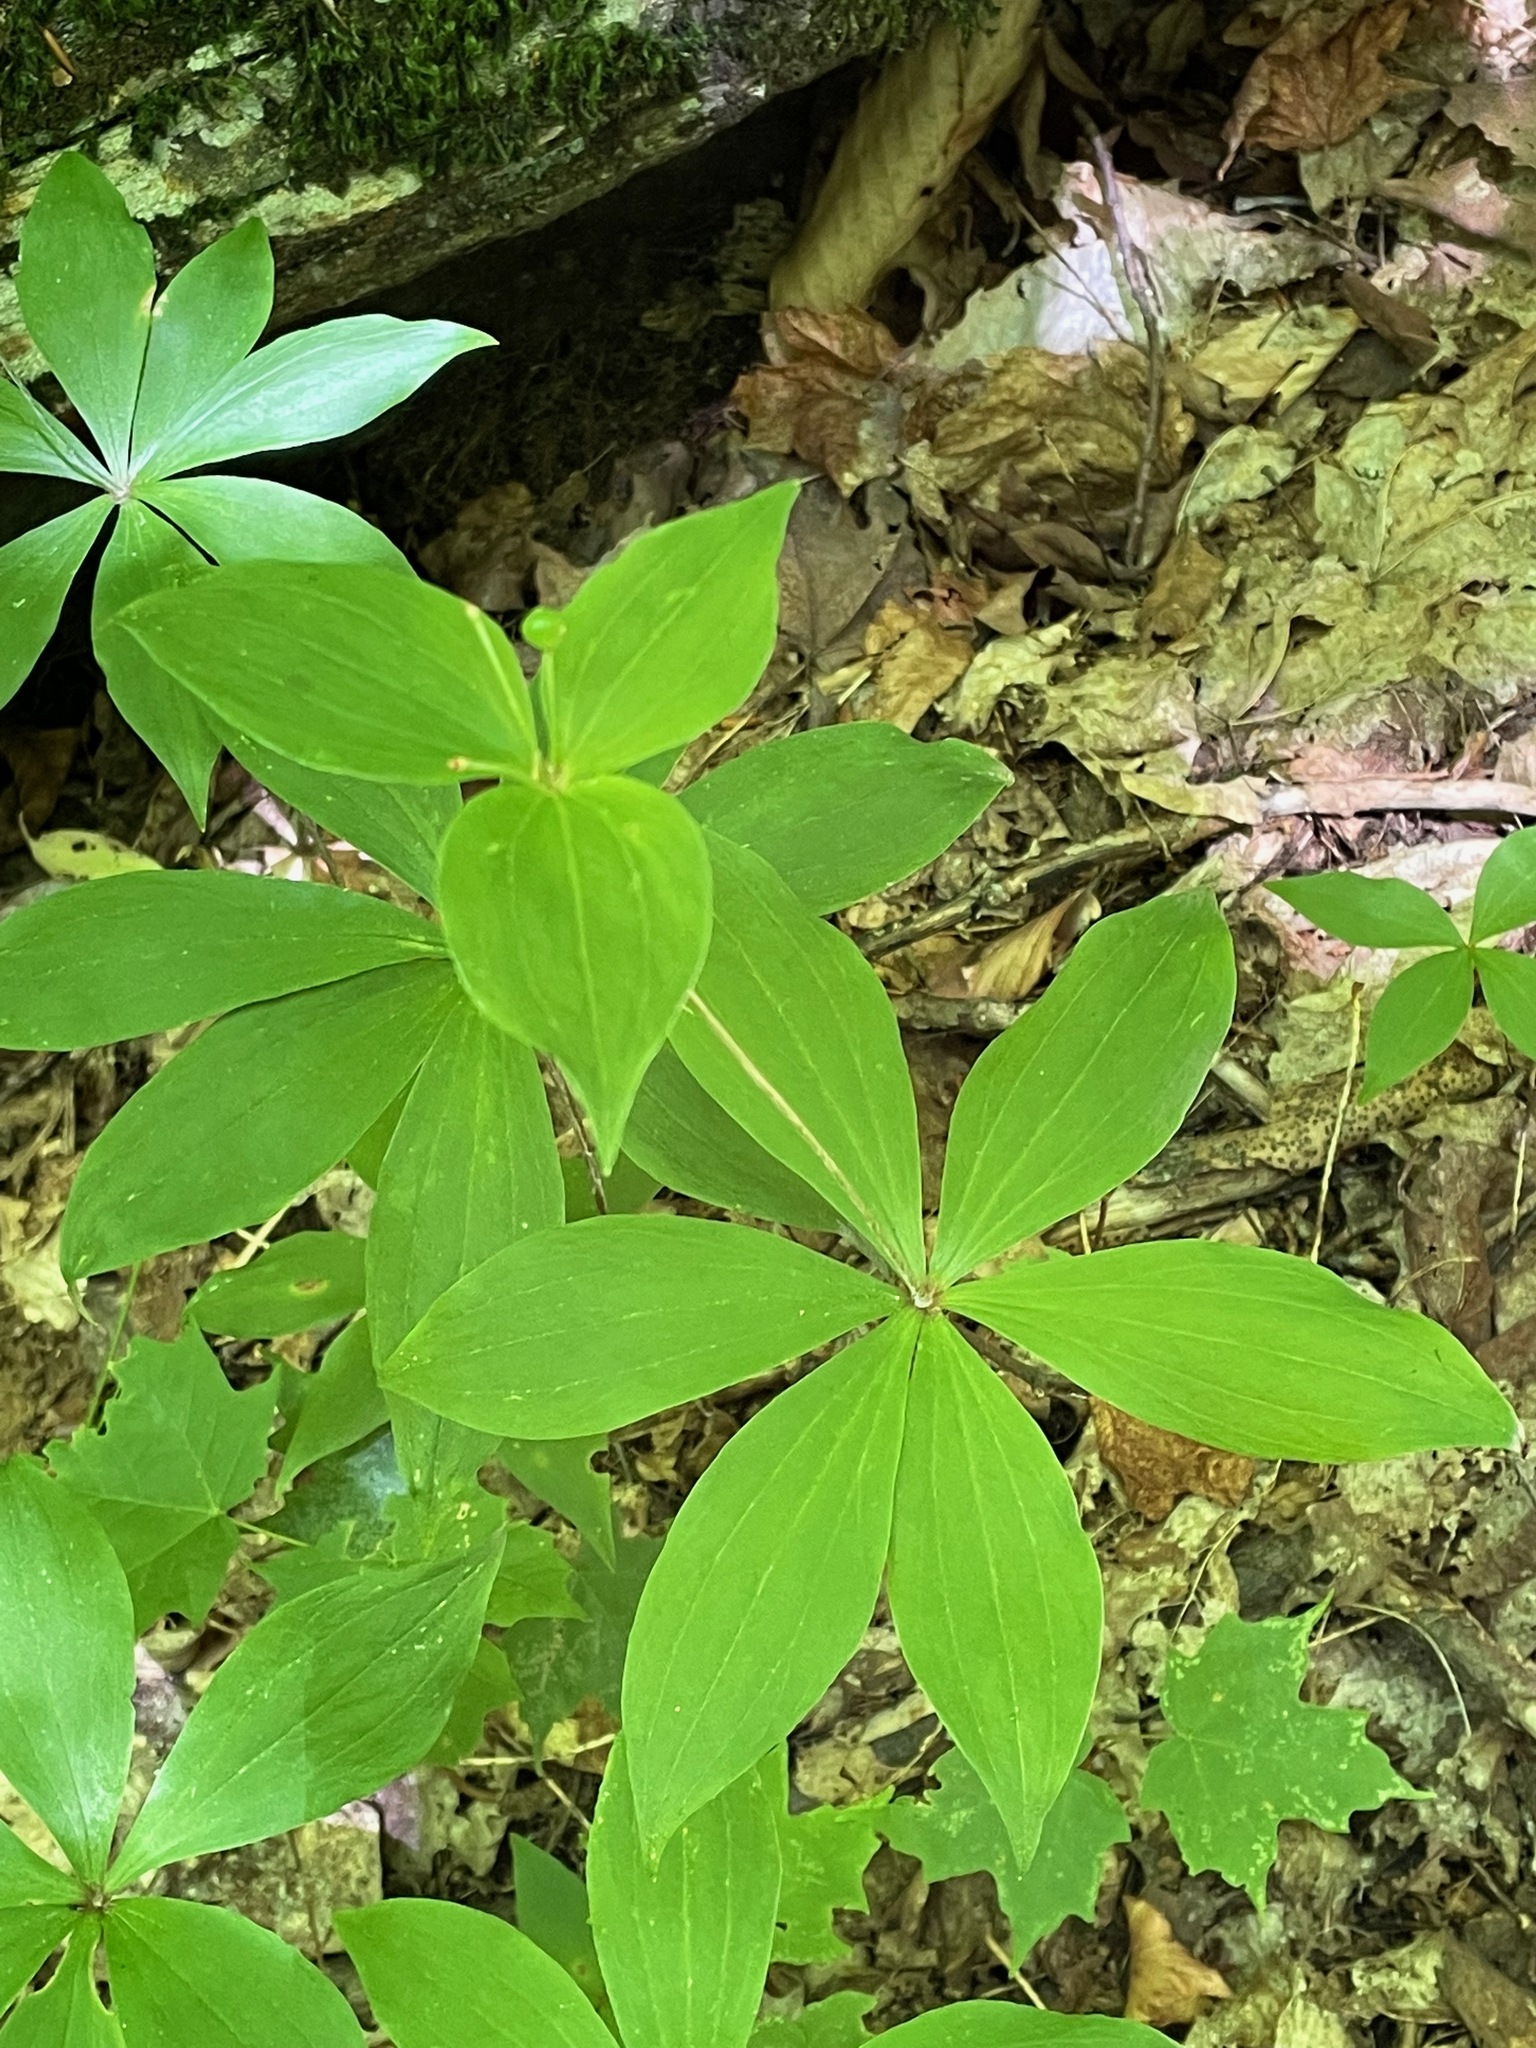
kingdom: Plantae
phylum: Tracheophyta
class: Liliopsida
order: Liliales
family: Liliaceae
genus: Medeola
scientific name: Medeola virginiana
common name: Indian cucumber-root
